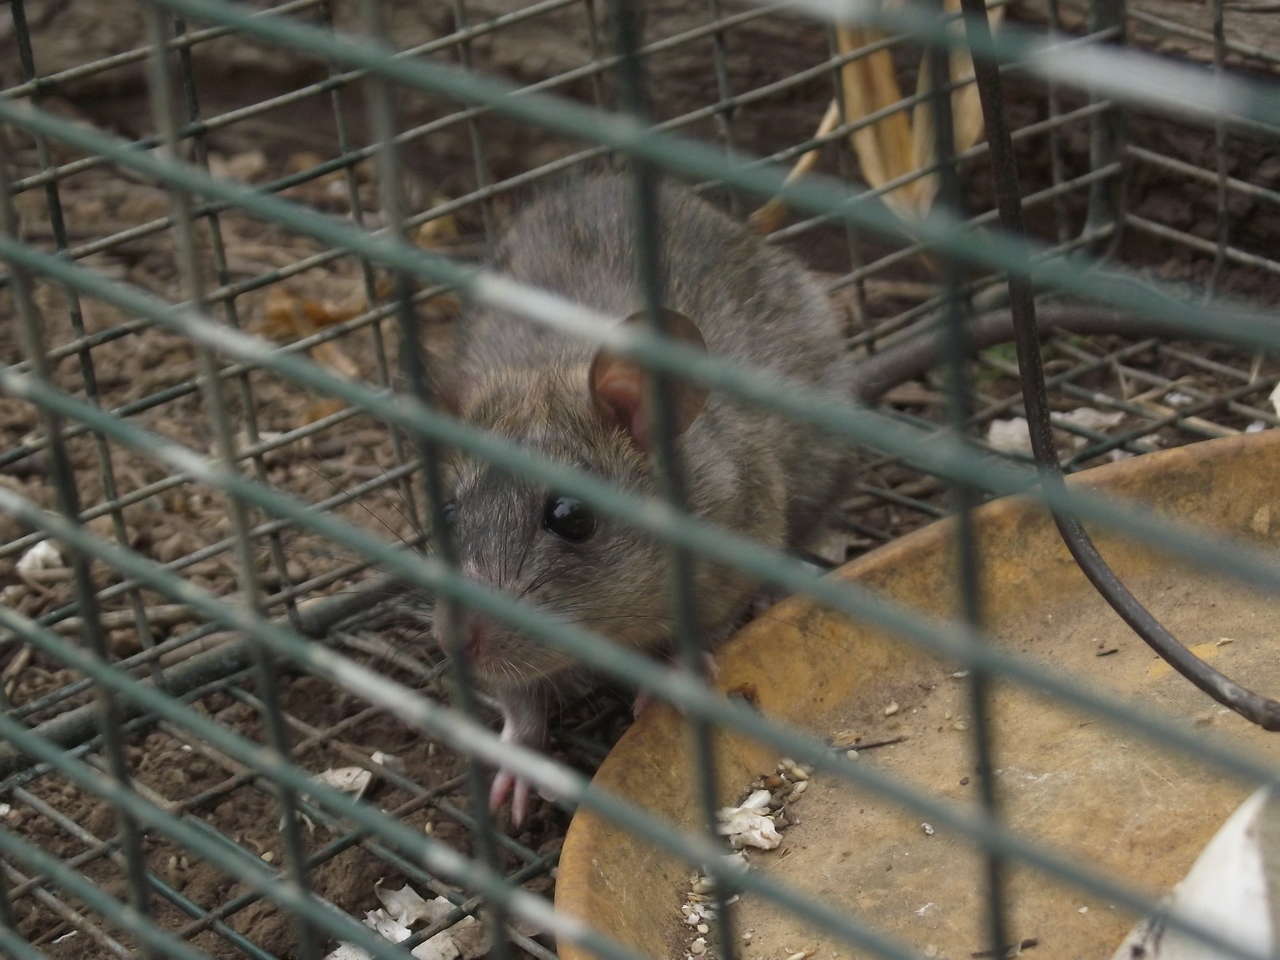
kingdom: Animalia
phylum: Chordata
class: Mammalia
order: Rodentia
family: Muridae
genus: Rattus
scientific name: Rattus norvegicus
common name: Brown rat
